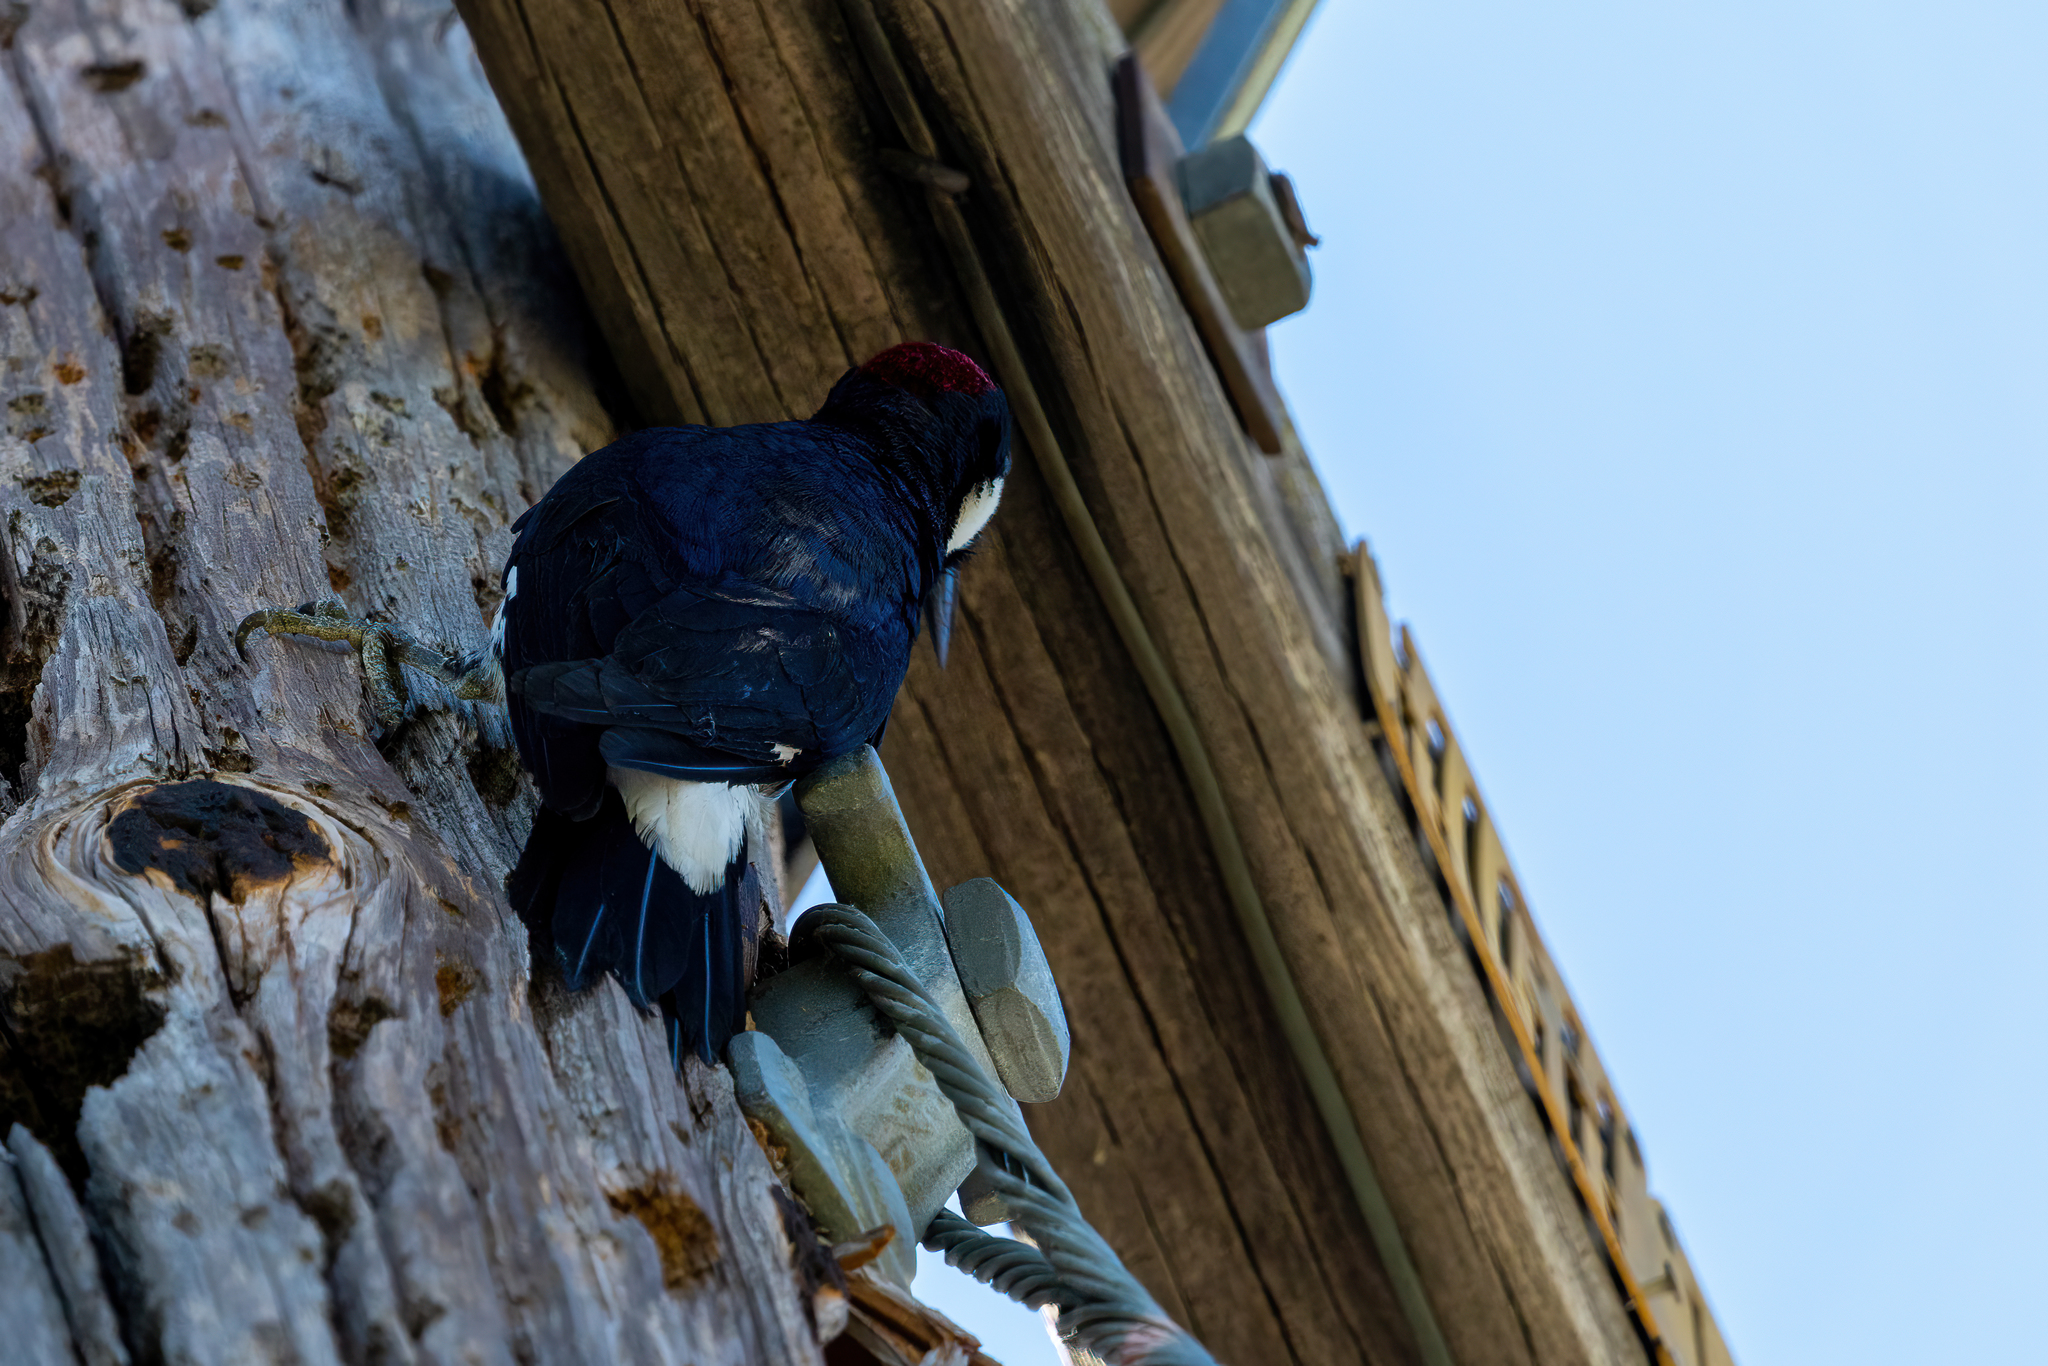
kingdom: Animalia
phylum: Chordata
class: Aves
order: Piciformes
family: Picidae
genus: Melanerpes
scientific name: Melanerpes formicivorus
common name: Acorn woodpecker
